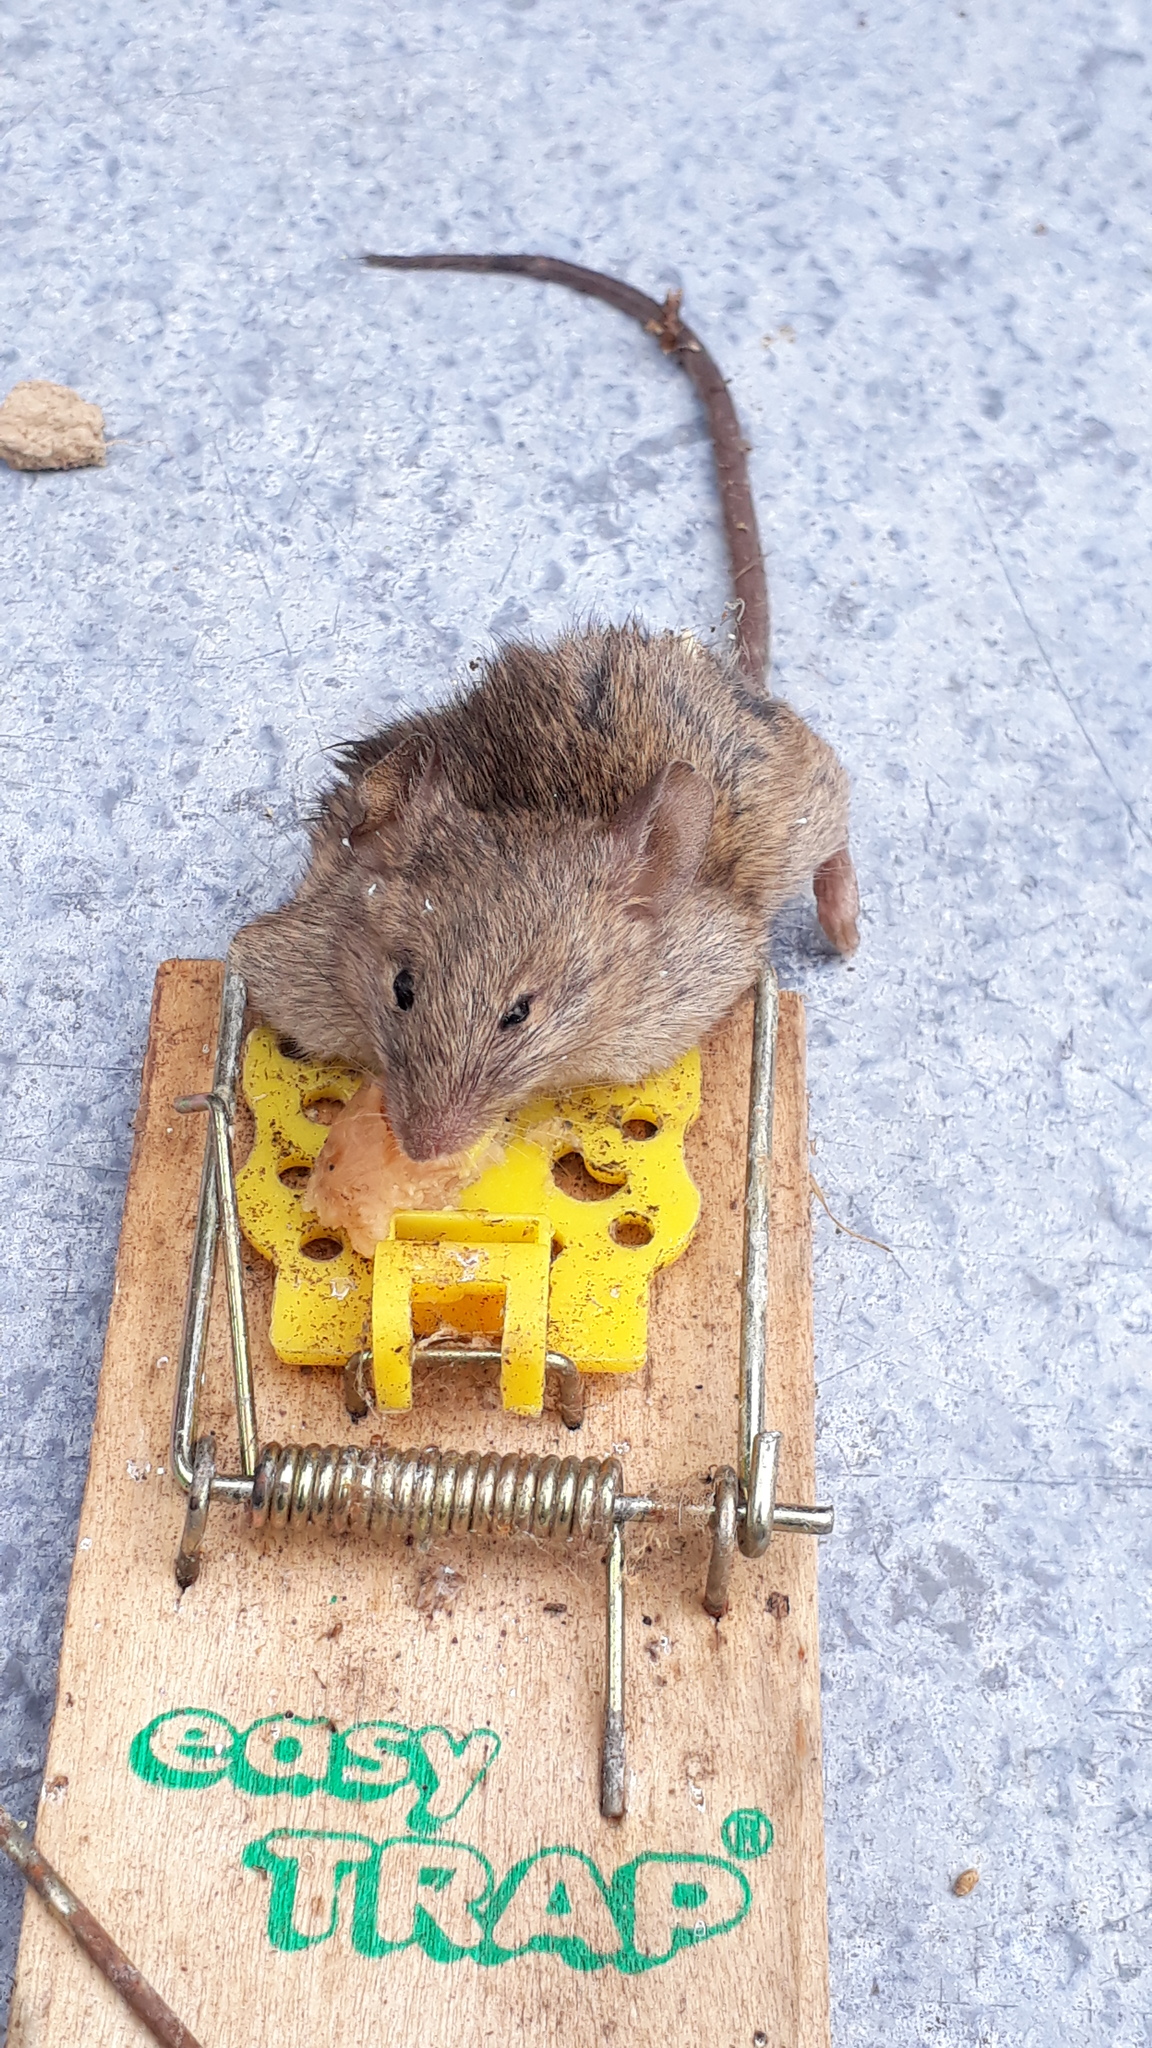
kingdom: Animalia
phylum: Chordata
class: Mammalia
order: Rodentia
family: Muridae
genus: Mus
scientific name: Mus musculus
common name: House mouse
